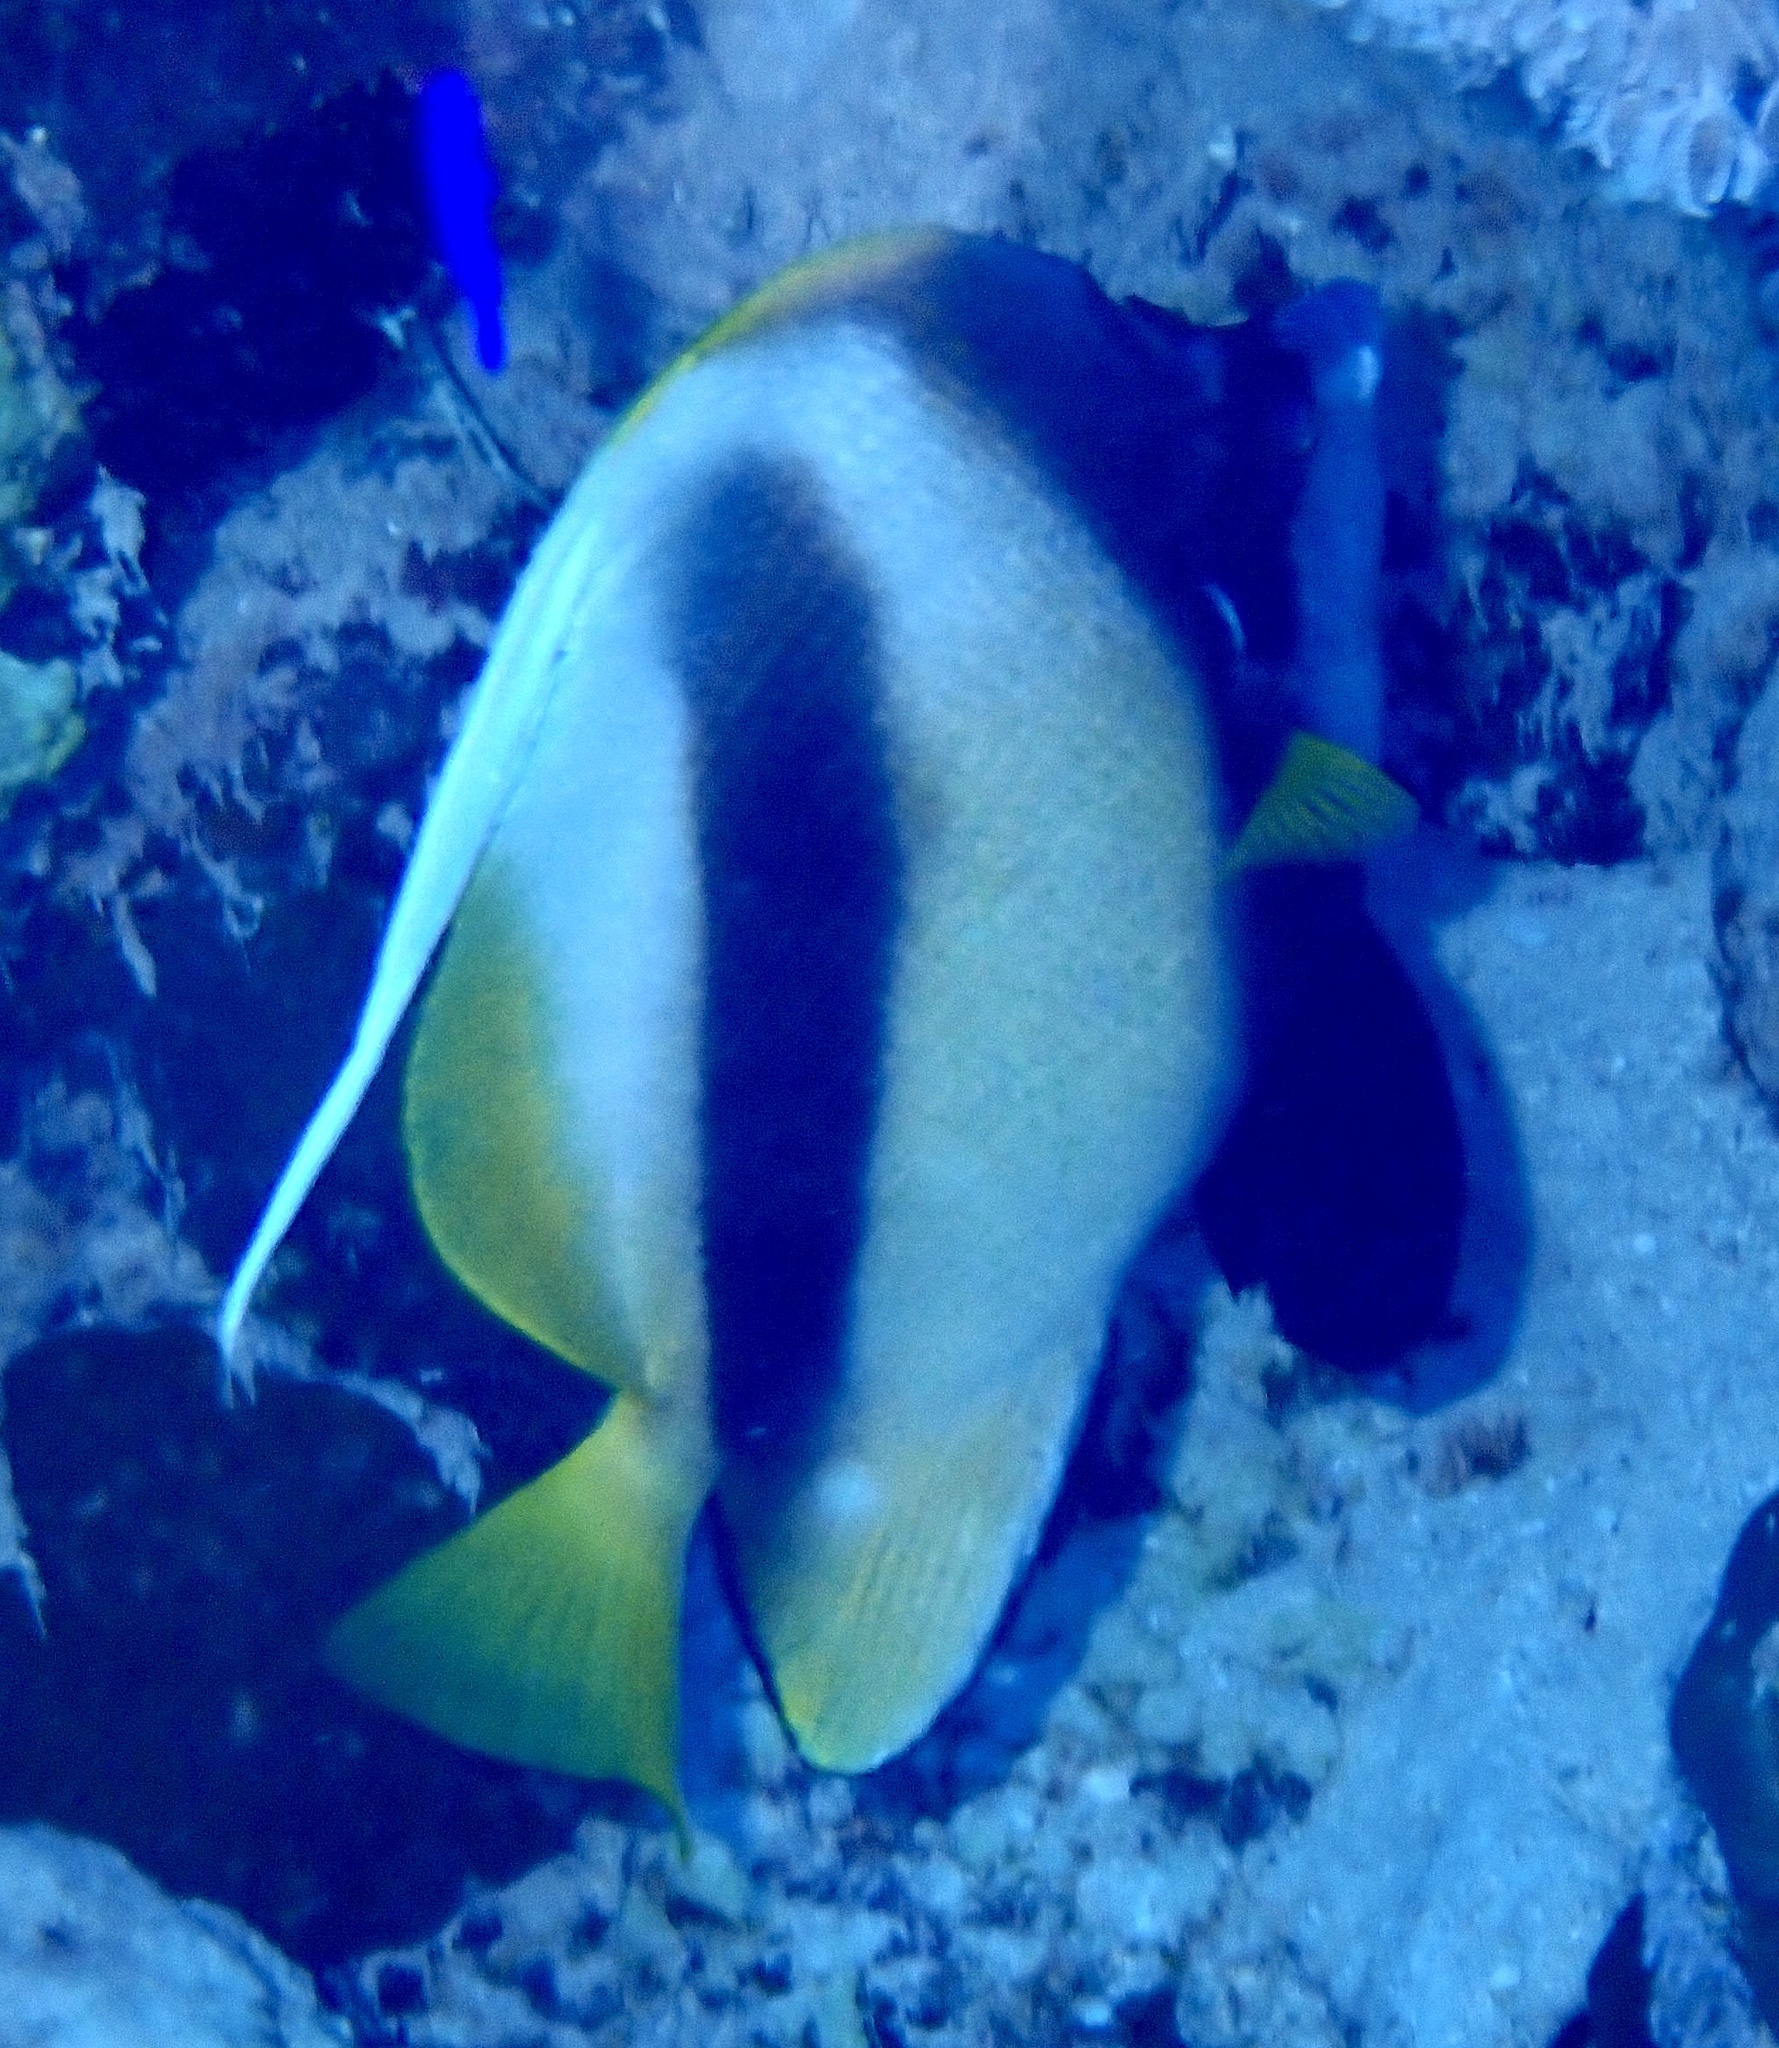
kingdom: Animalia
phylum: Chordata
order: Perciformes
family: Chaetodontidae
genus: Heniochus
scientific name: Heniochus intermedius
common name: Red sea bannerfish
